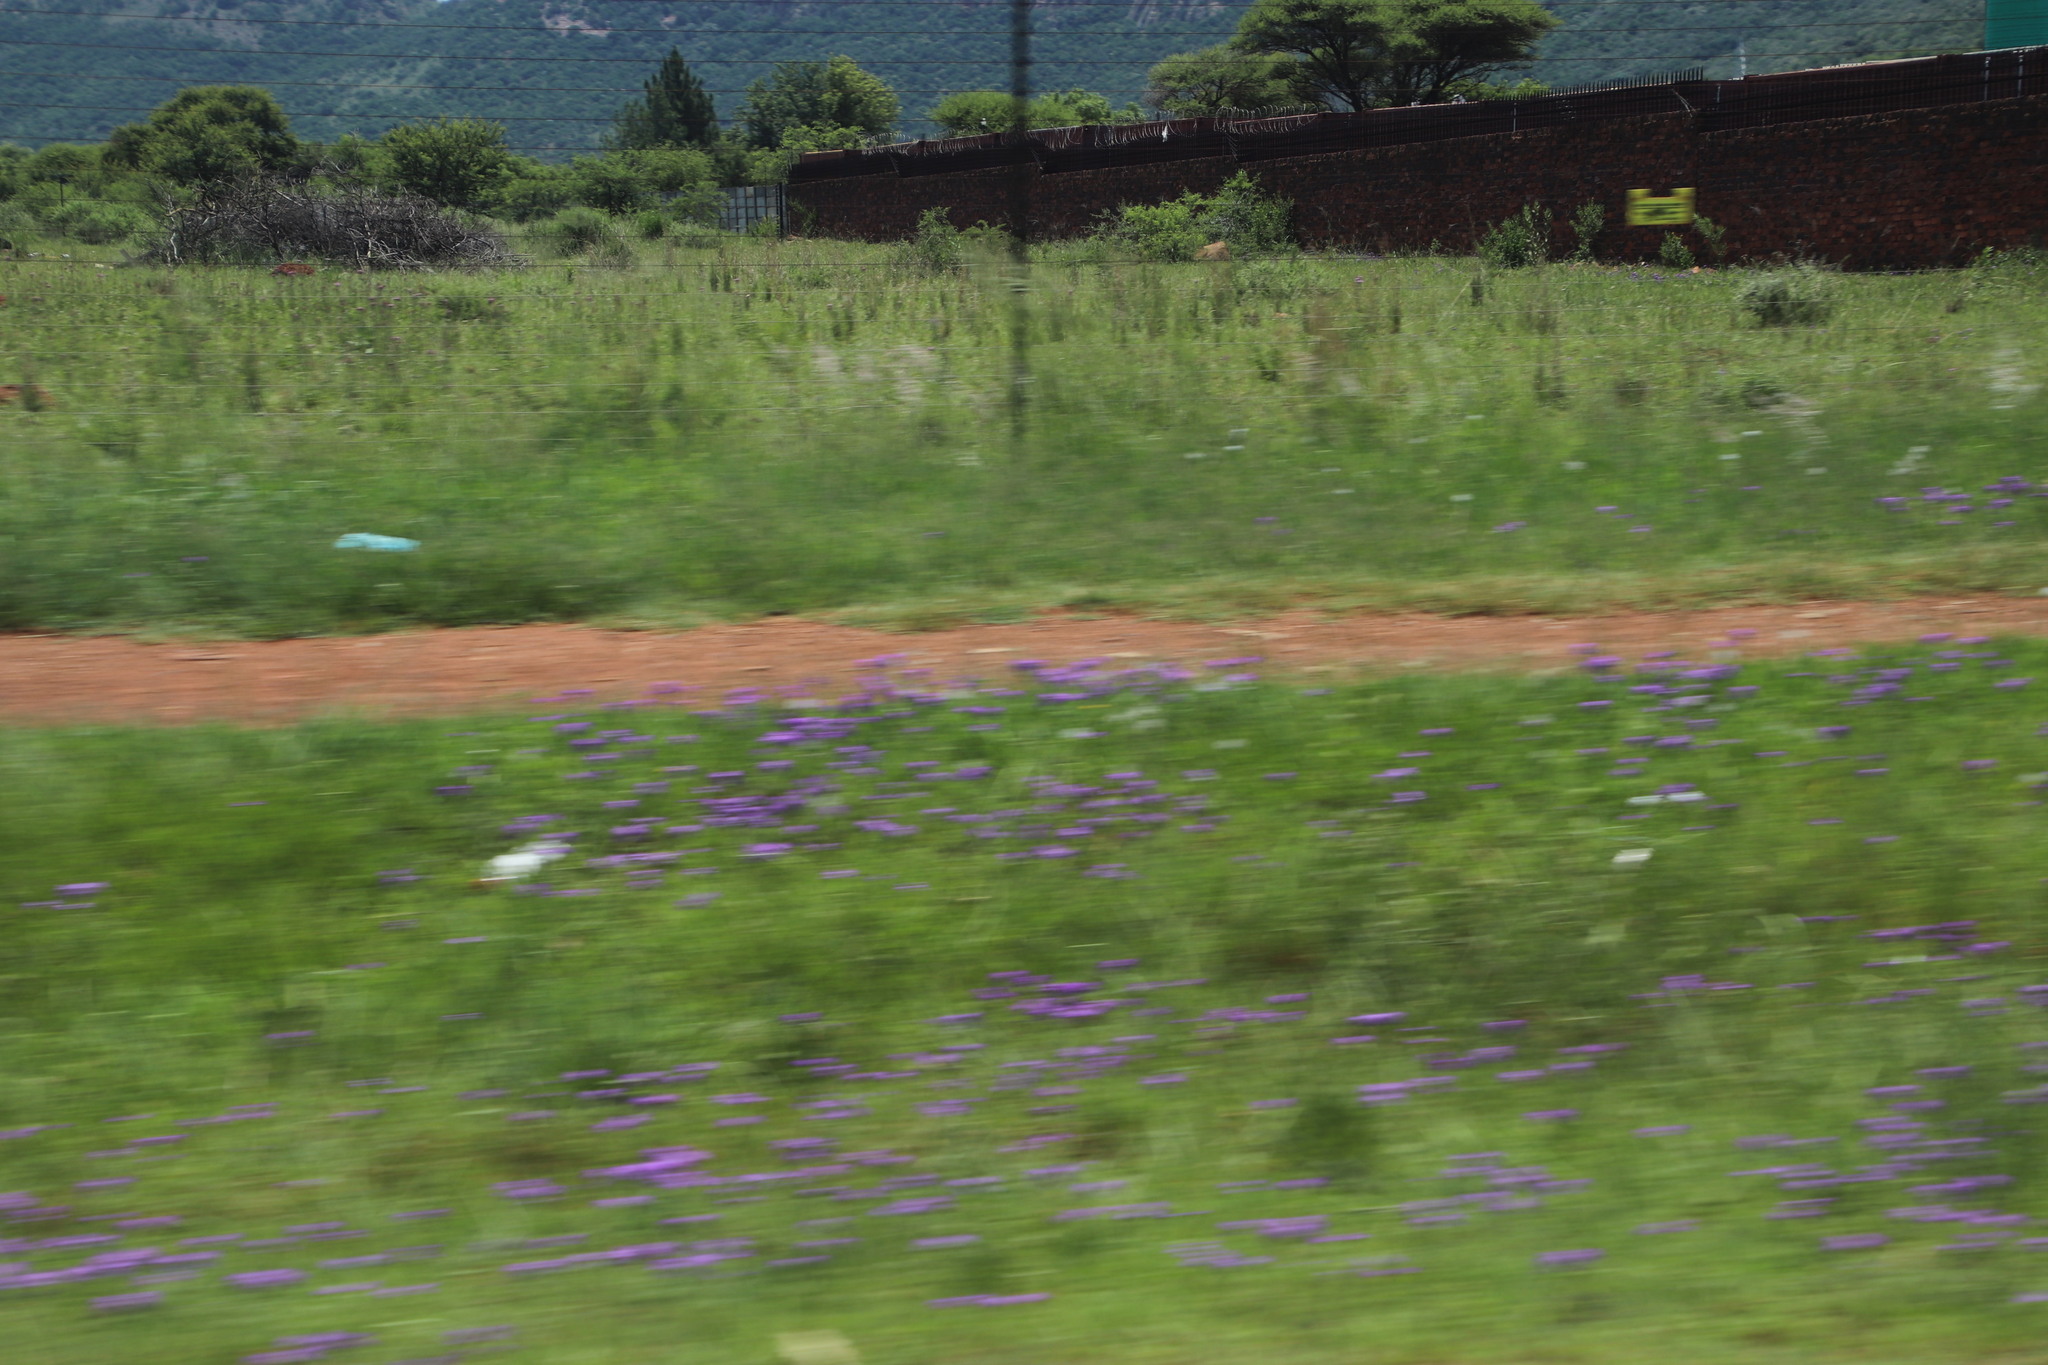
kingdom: Plantae
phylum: Tracheophyta
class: Magnoliopsida
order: Lamiales
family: Verbenaceae
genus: Verbena
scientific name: Verbena aristigera
